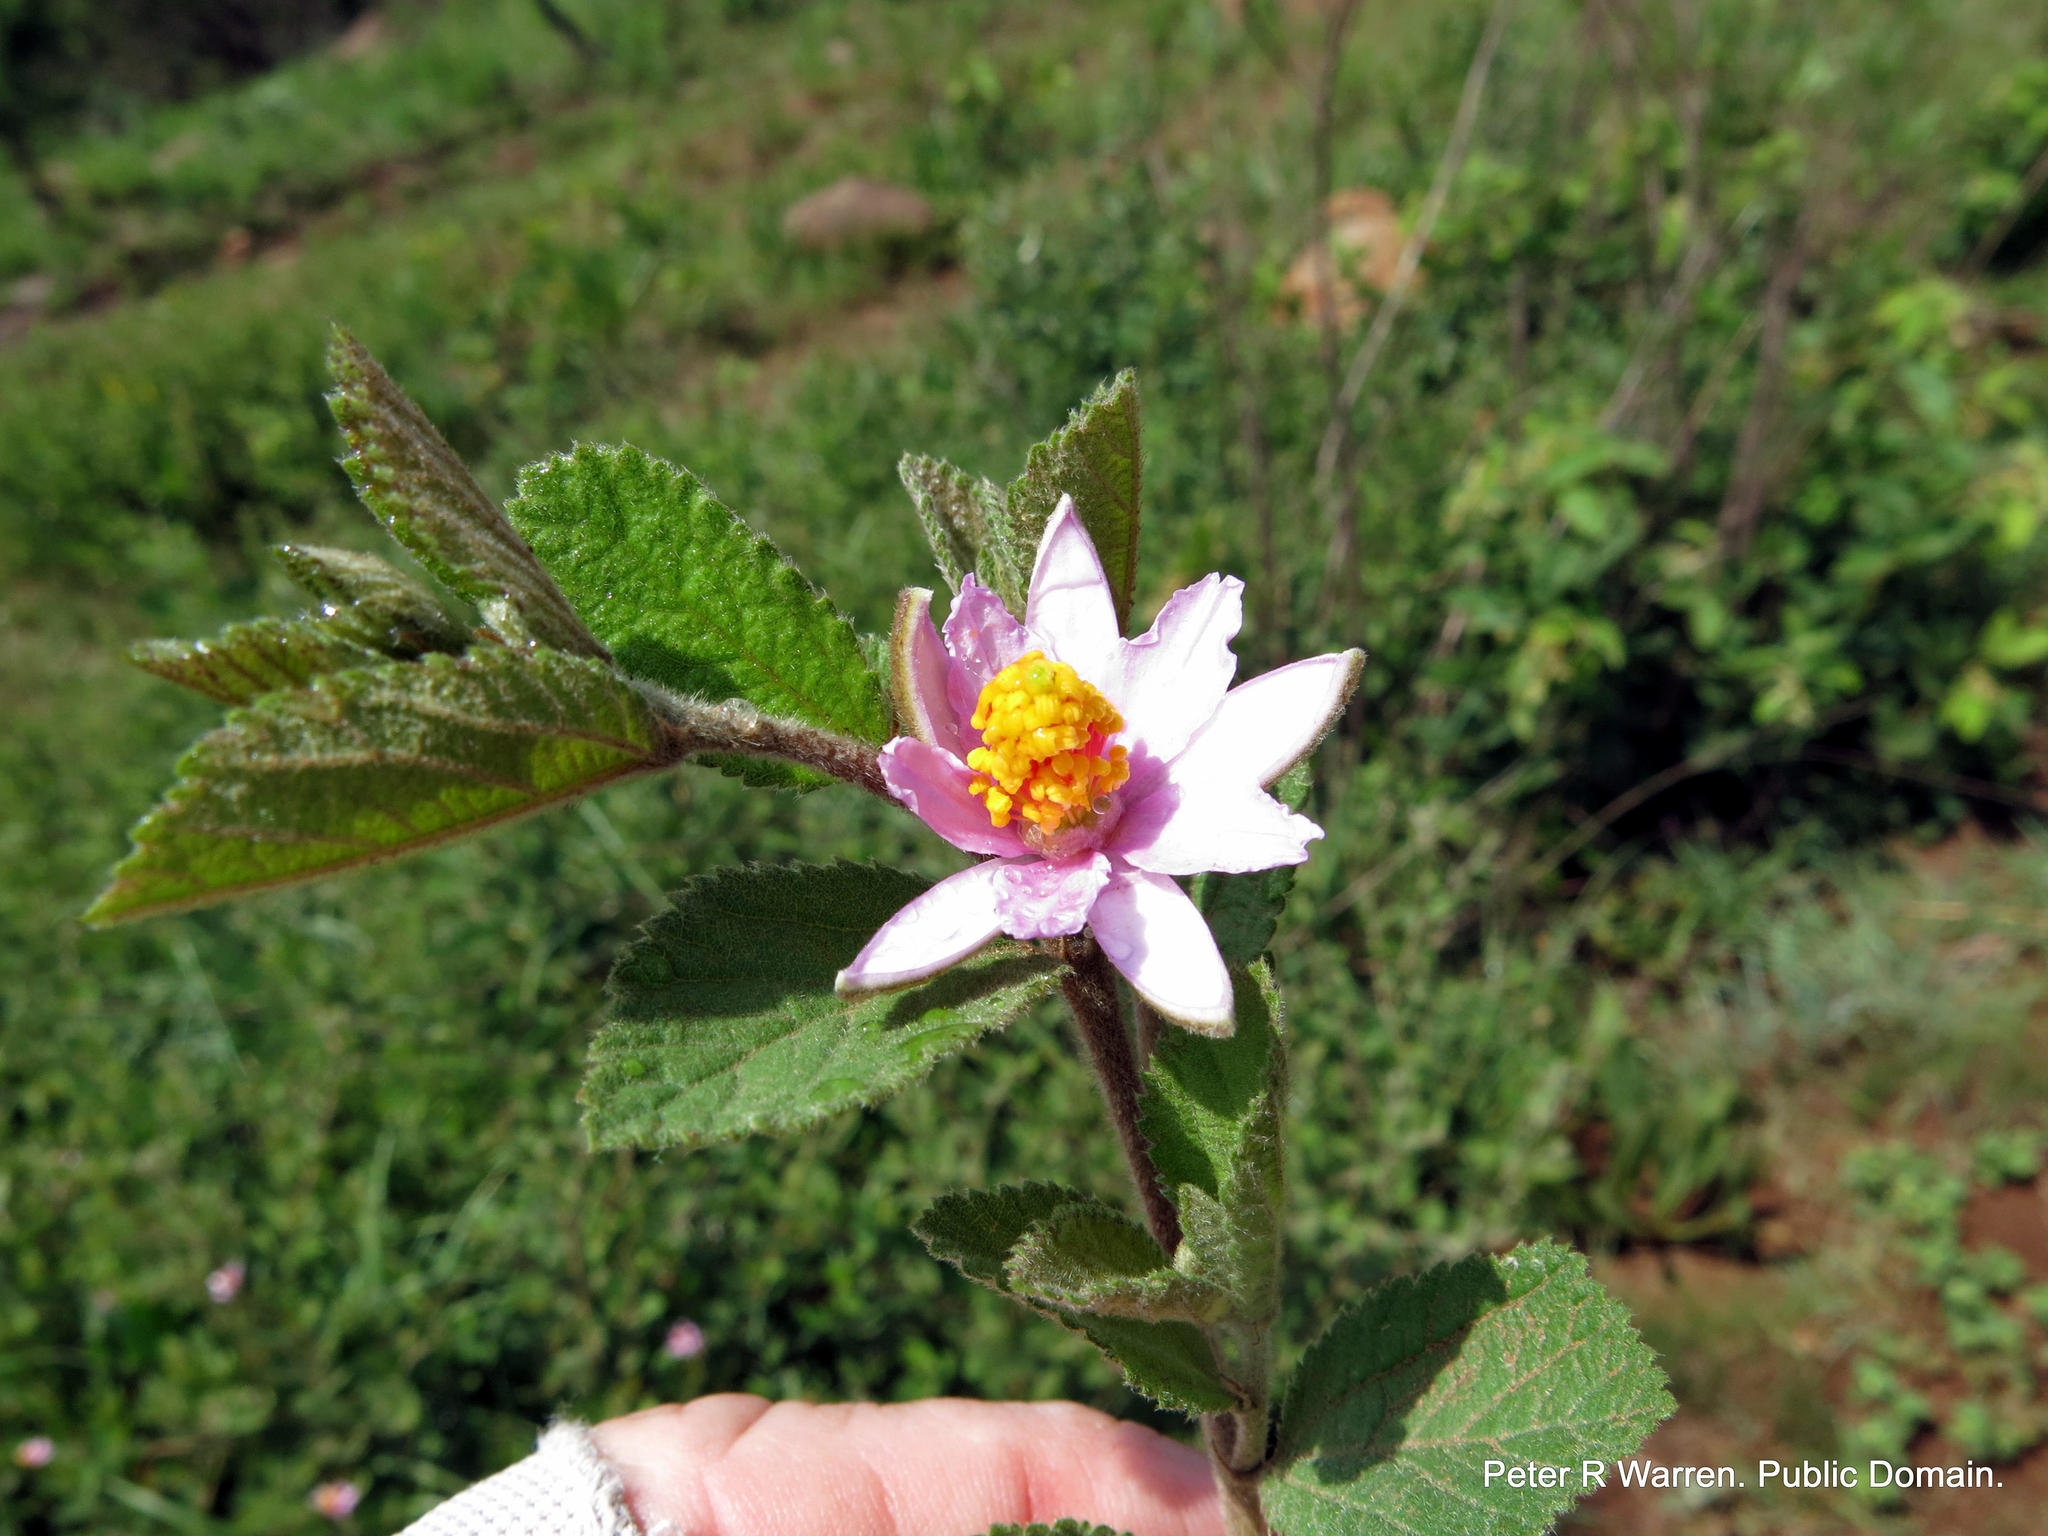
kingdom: Plantae
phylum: Tracheophyta
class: Magnoliopsida
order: Malvales
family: Malvaceae
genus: Grewia
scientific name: Grewia lasiocarpa
